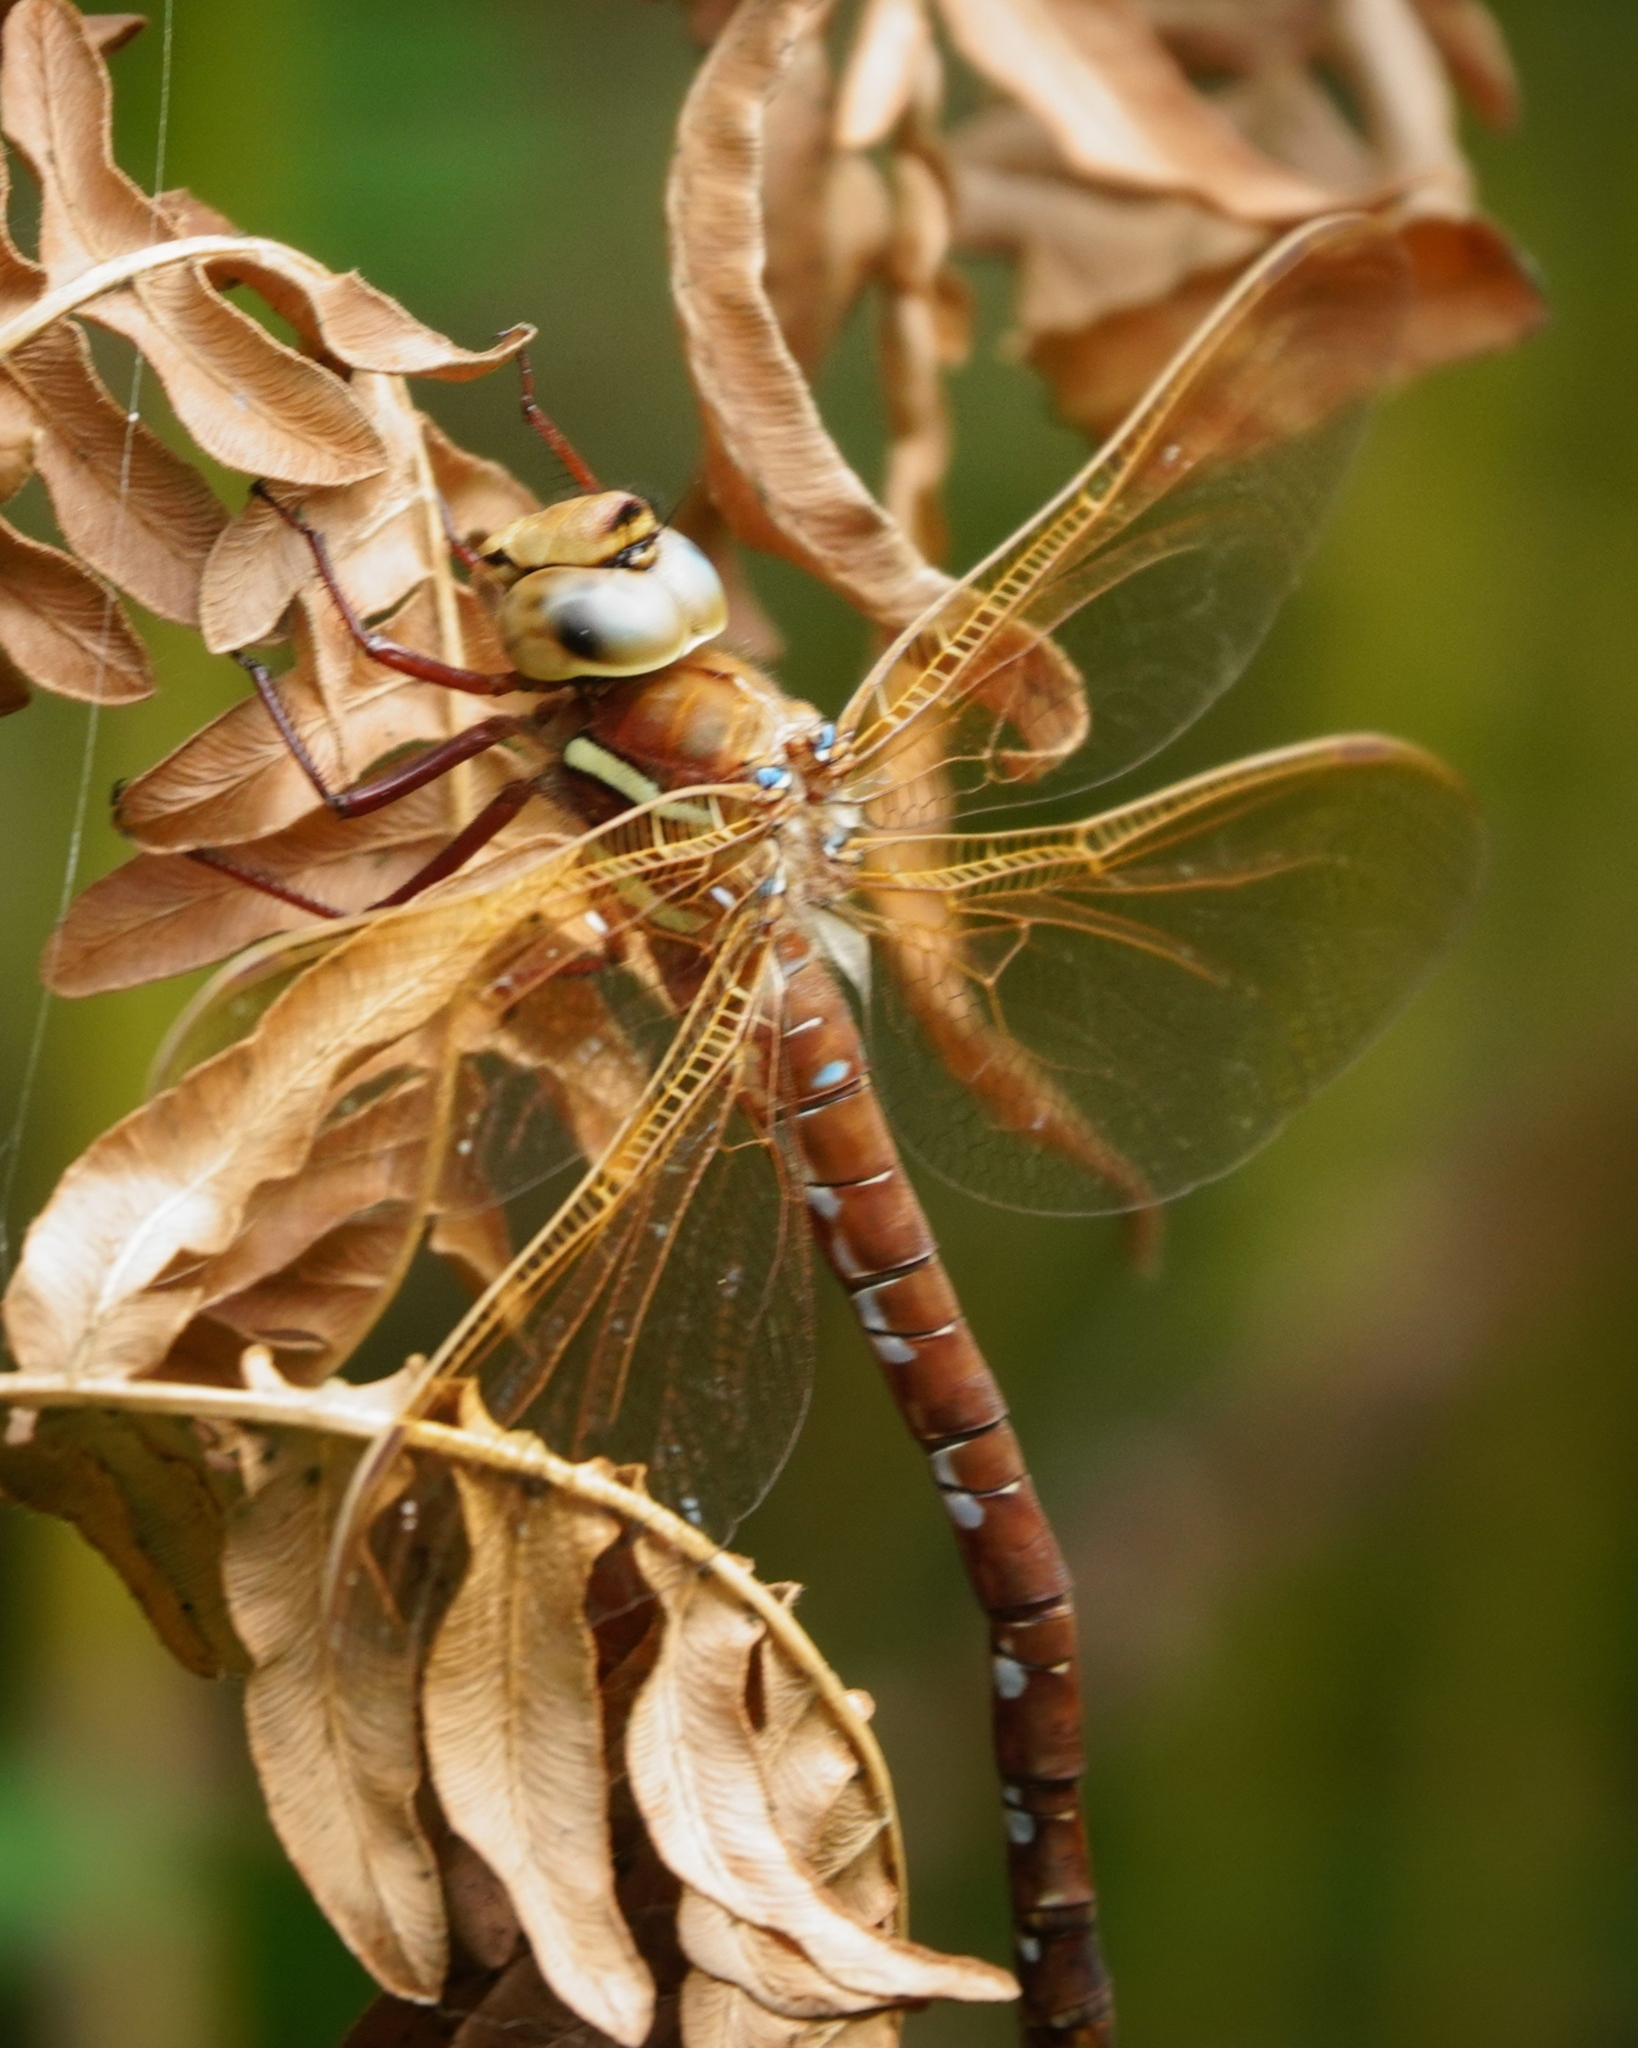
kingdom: Animalia
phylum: Arthropoda
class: Insecta
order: Odonata
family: Aeshnidae
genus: Aeshna
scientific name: Aeshna grandis
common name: Brown hawker
